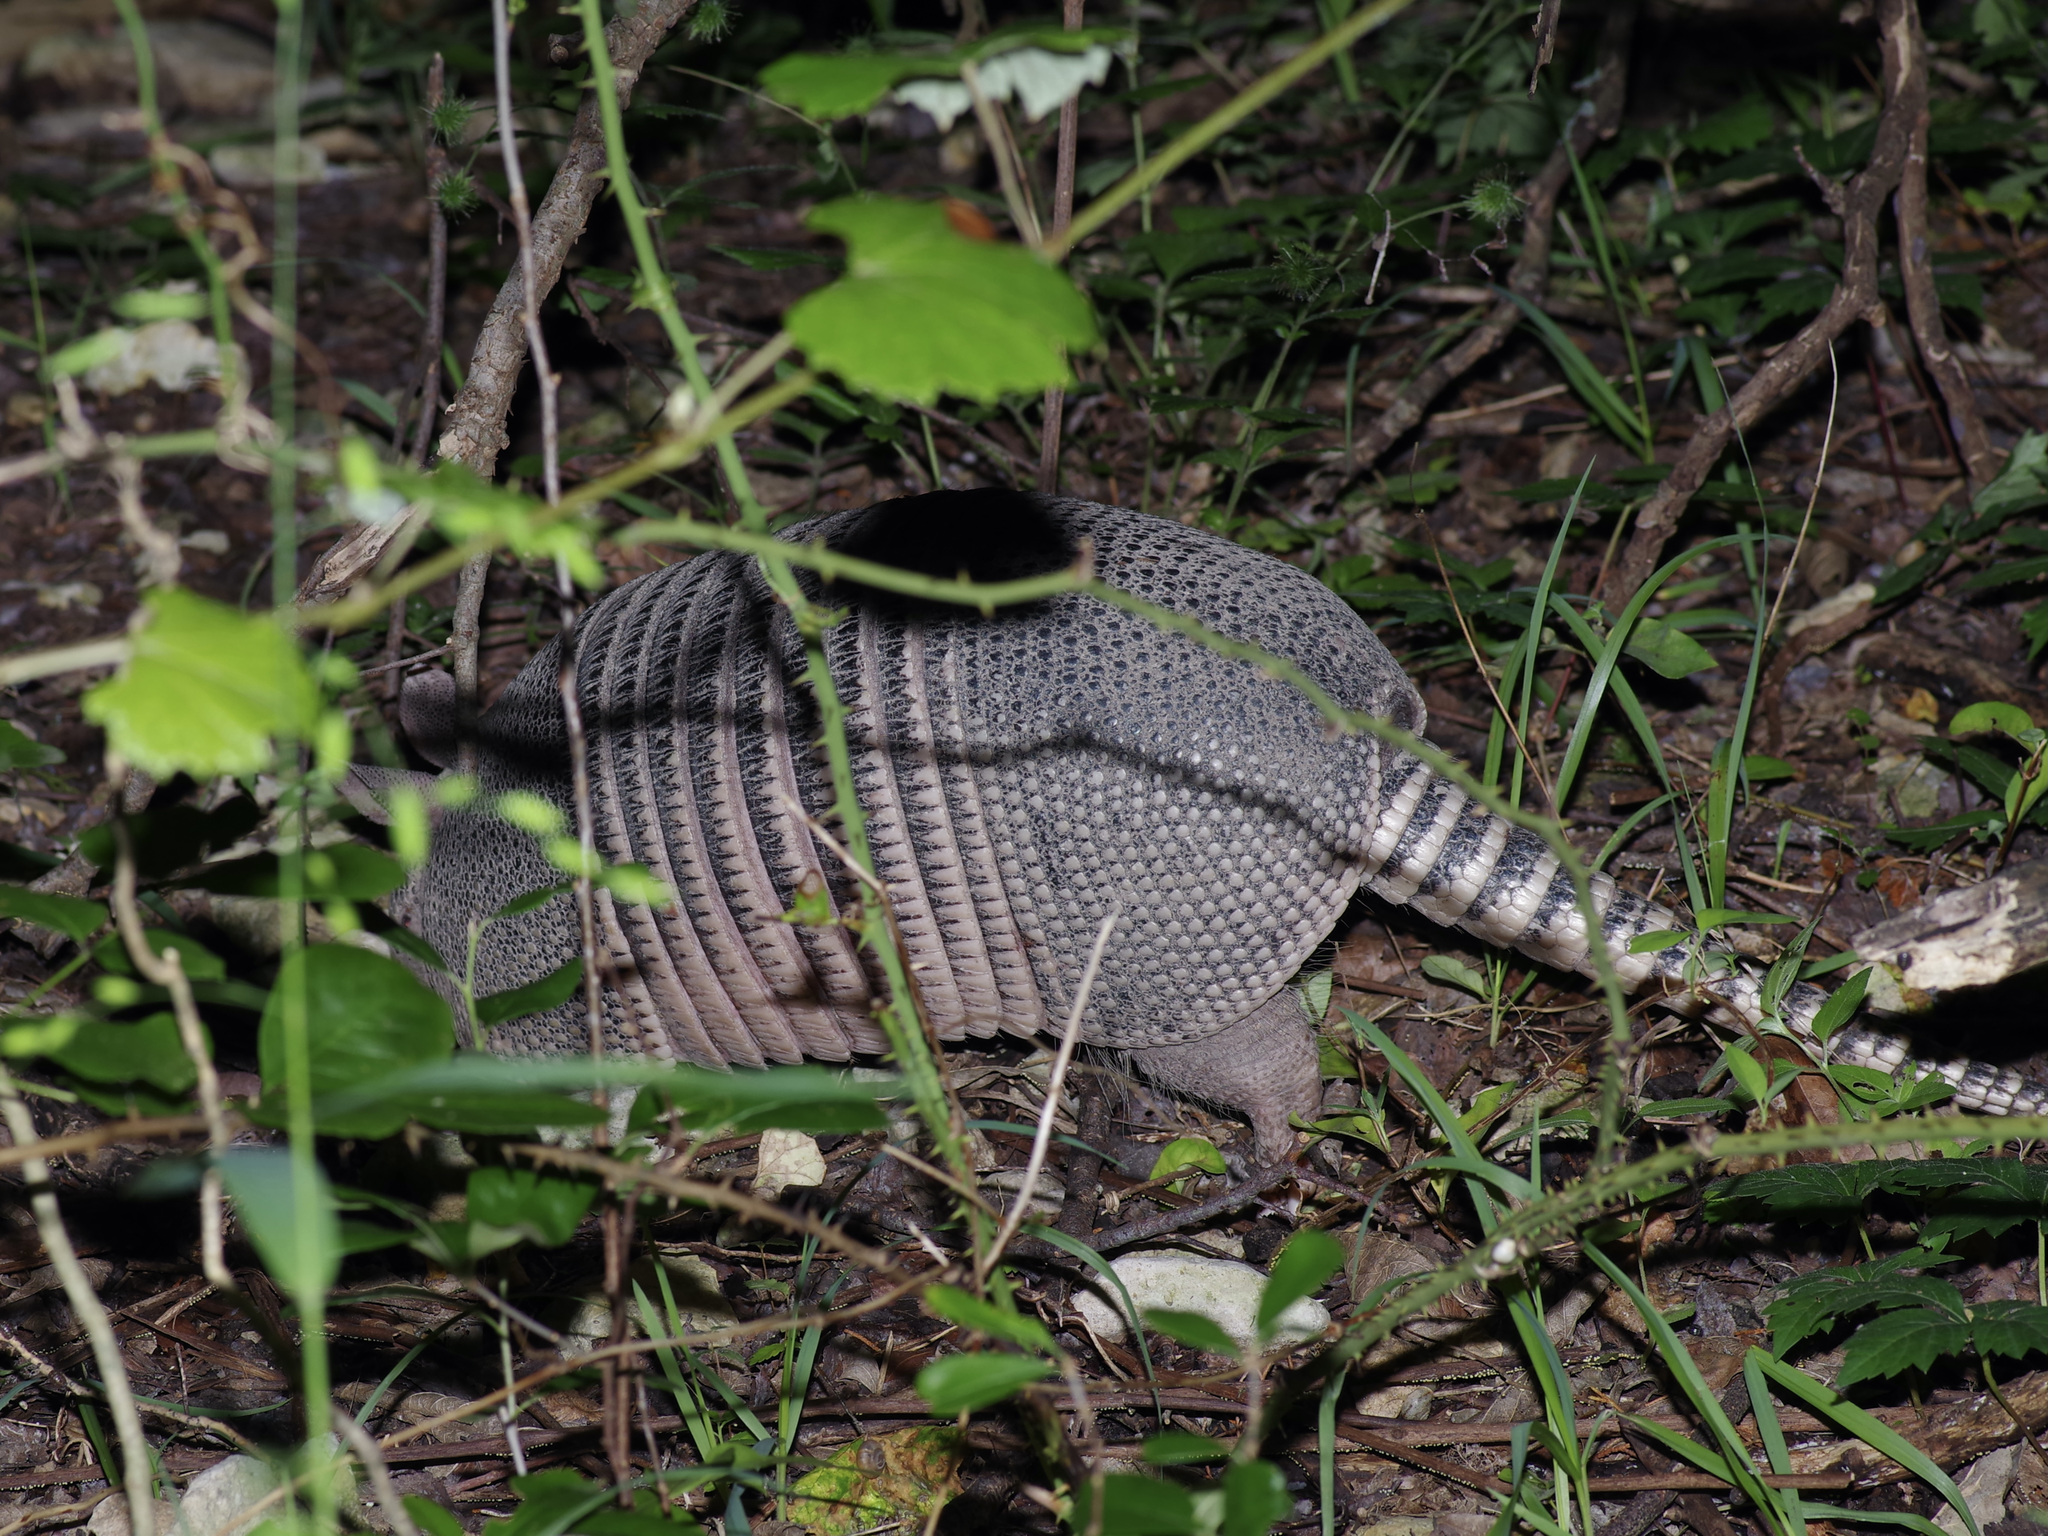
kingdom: Animalia
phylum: Chordata
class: Mammalia
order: Cingulata
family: Dasypodidae
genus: Dasypus
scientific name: Dasypus novemcinctus
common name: Nine-banded armadillo
